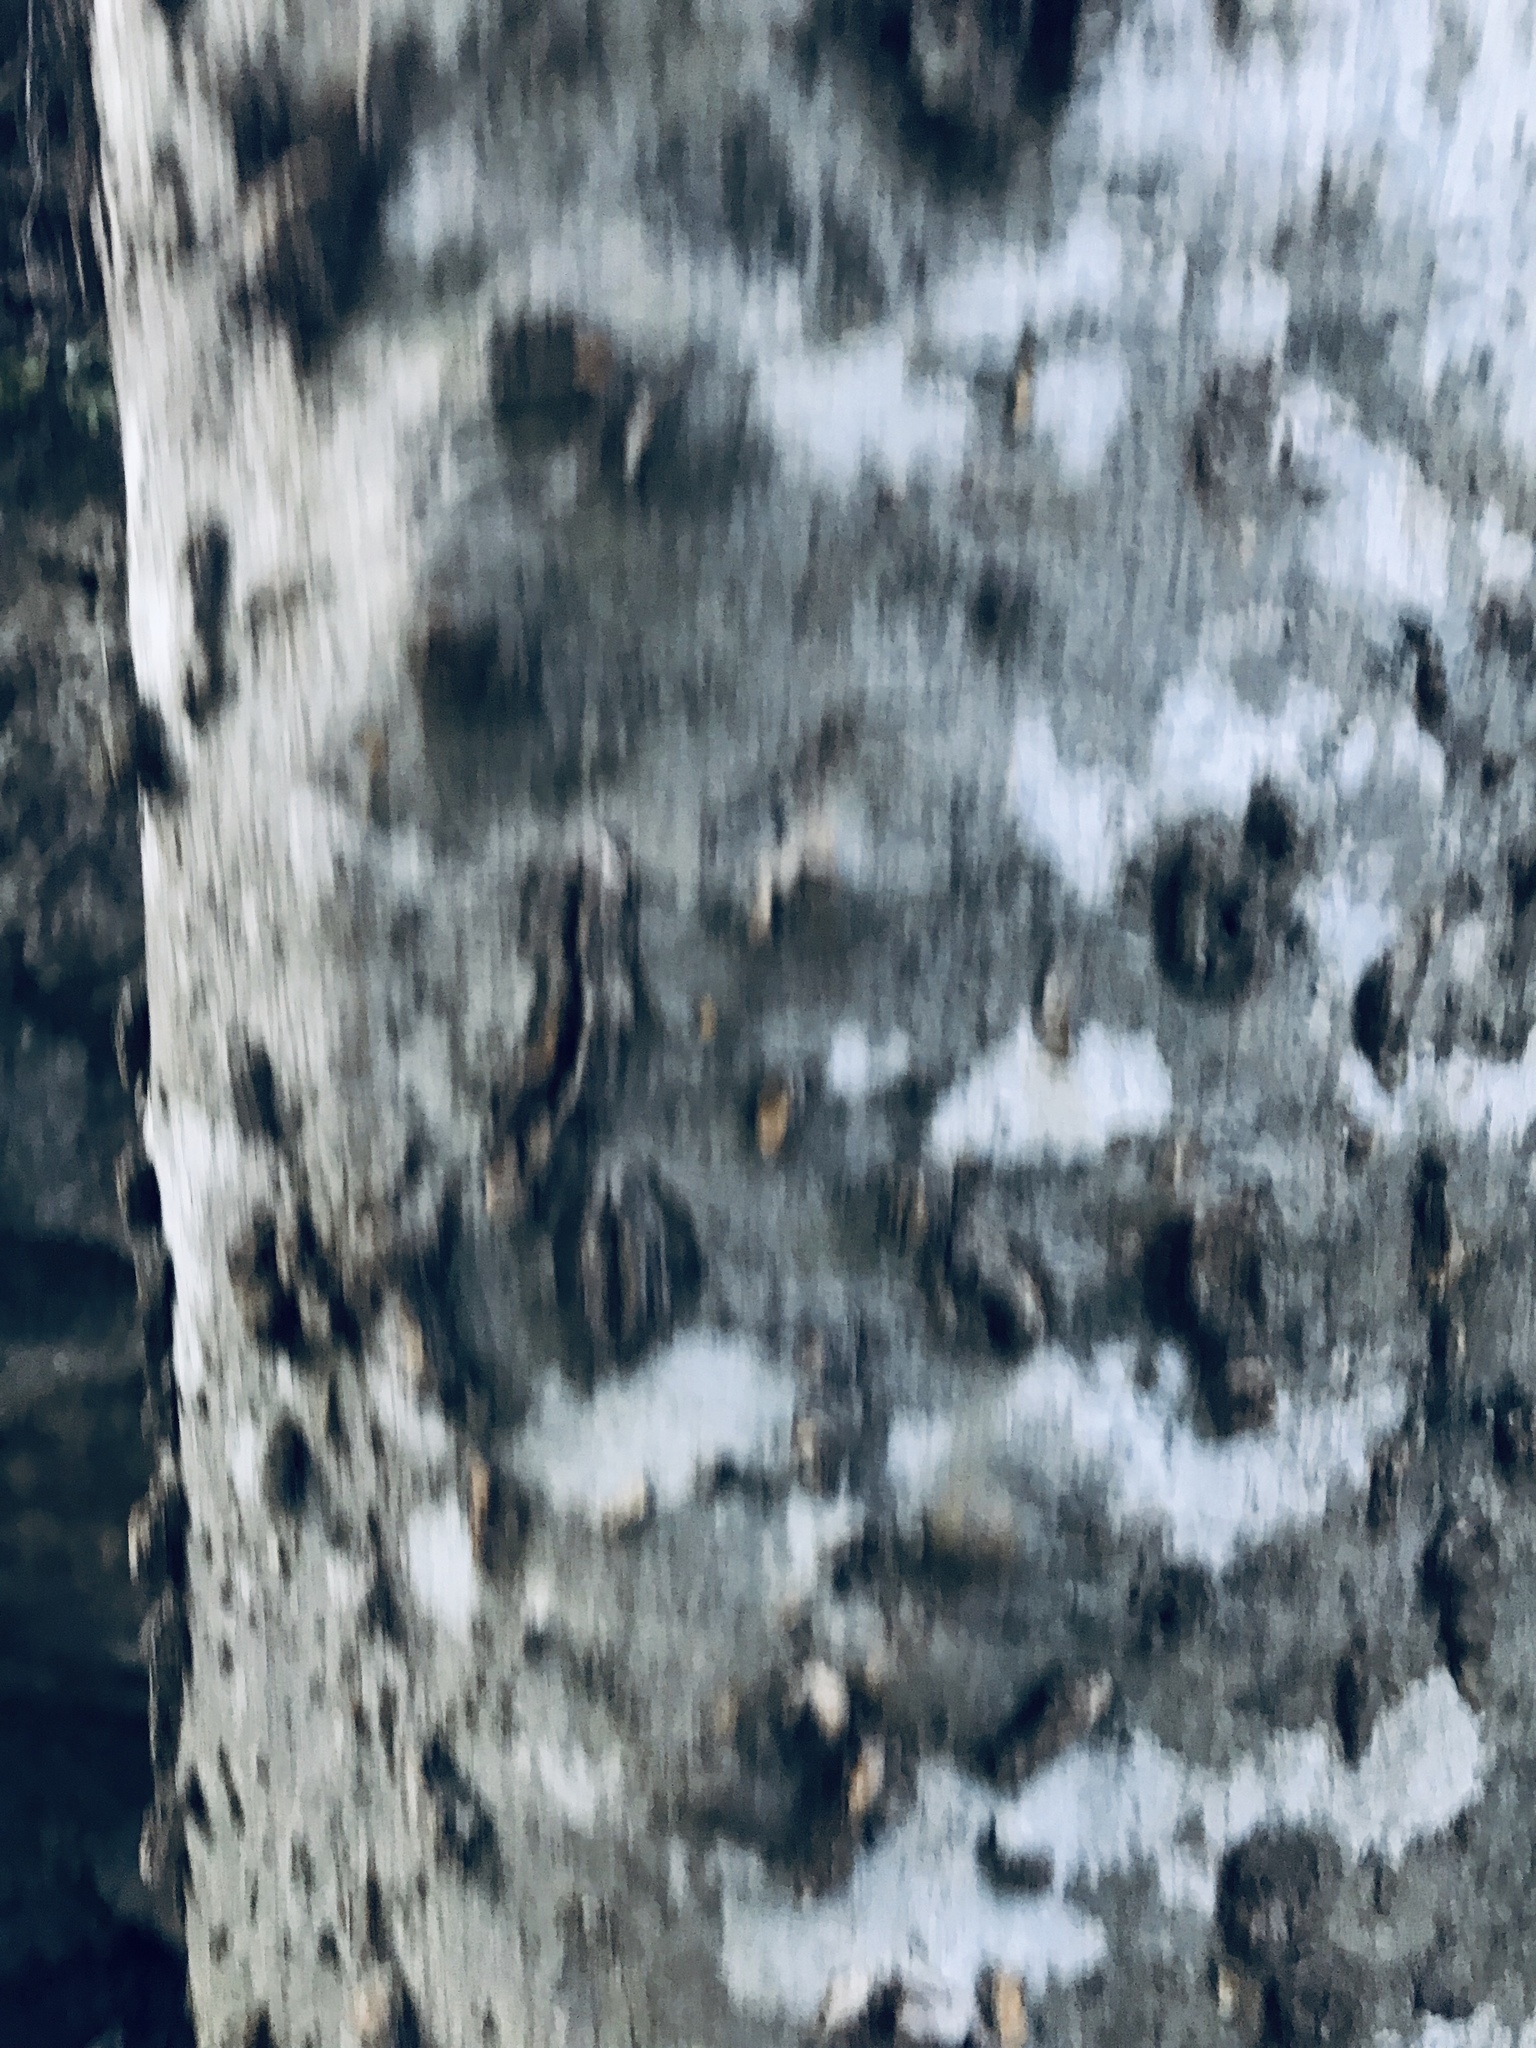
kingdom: Plantae
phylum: Tracheophyta
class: Magnoliopsida
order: Rosales
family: Cannabaceae
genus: Celtis
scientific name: Celtis laevigata
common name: Sugarberry
